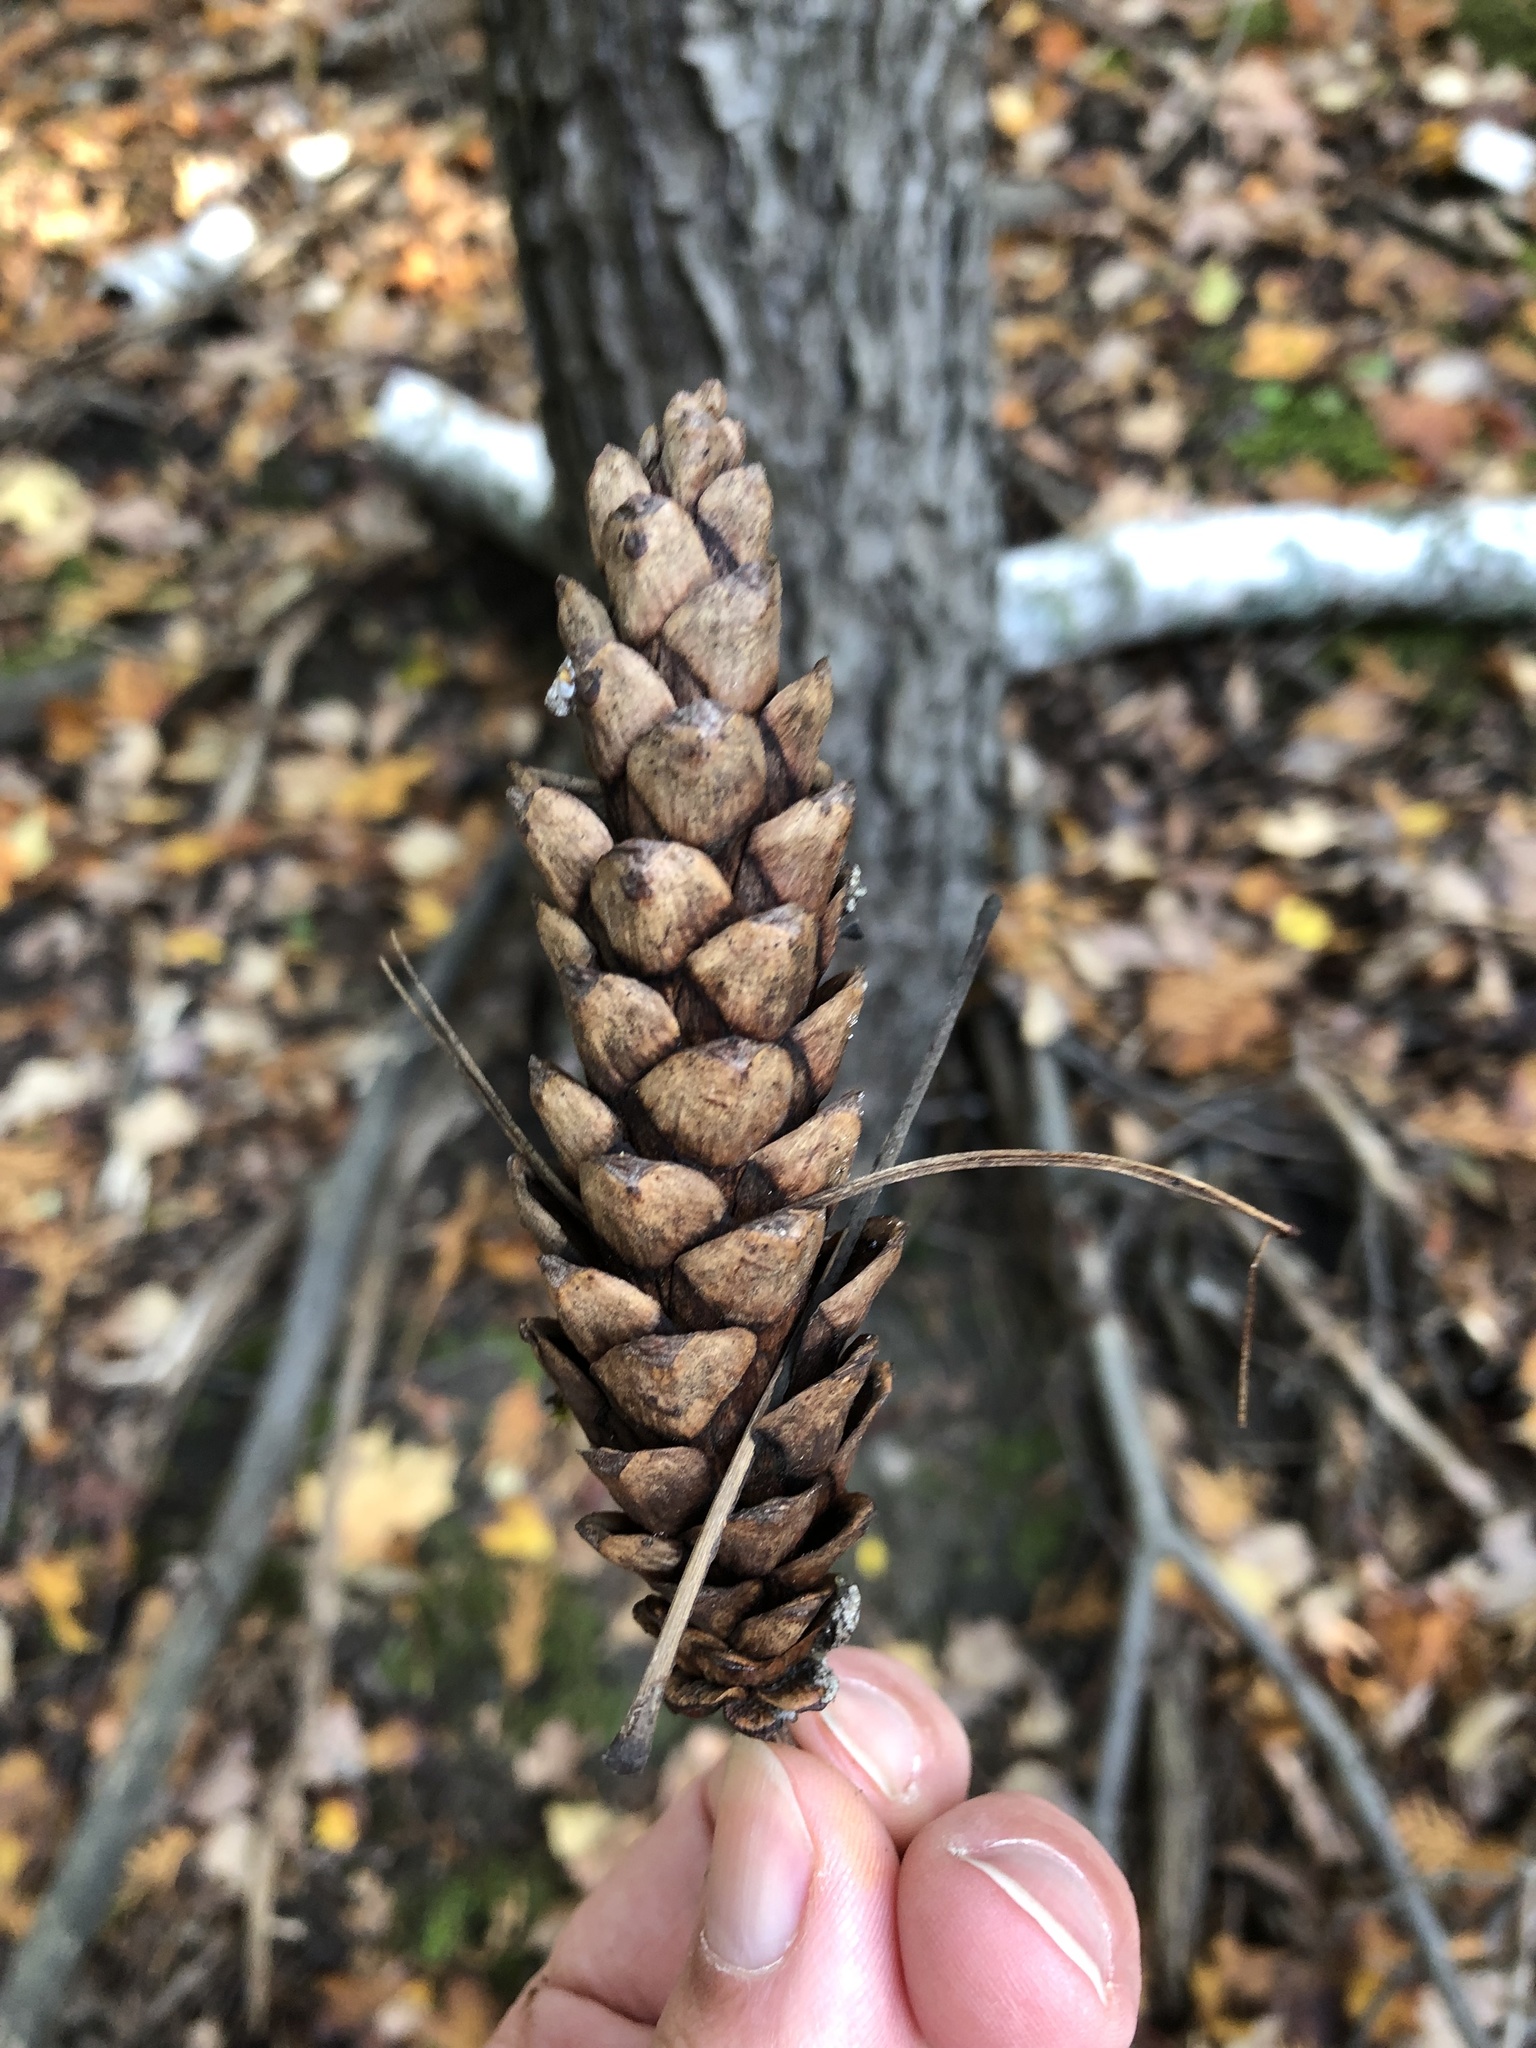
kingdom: Plantae
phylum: Tracheophyta
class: Pinopsida
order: Pinales
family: Pinaceae
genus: Pinus
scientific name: Pinus strobus
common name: Weymouth pine
